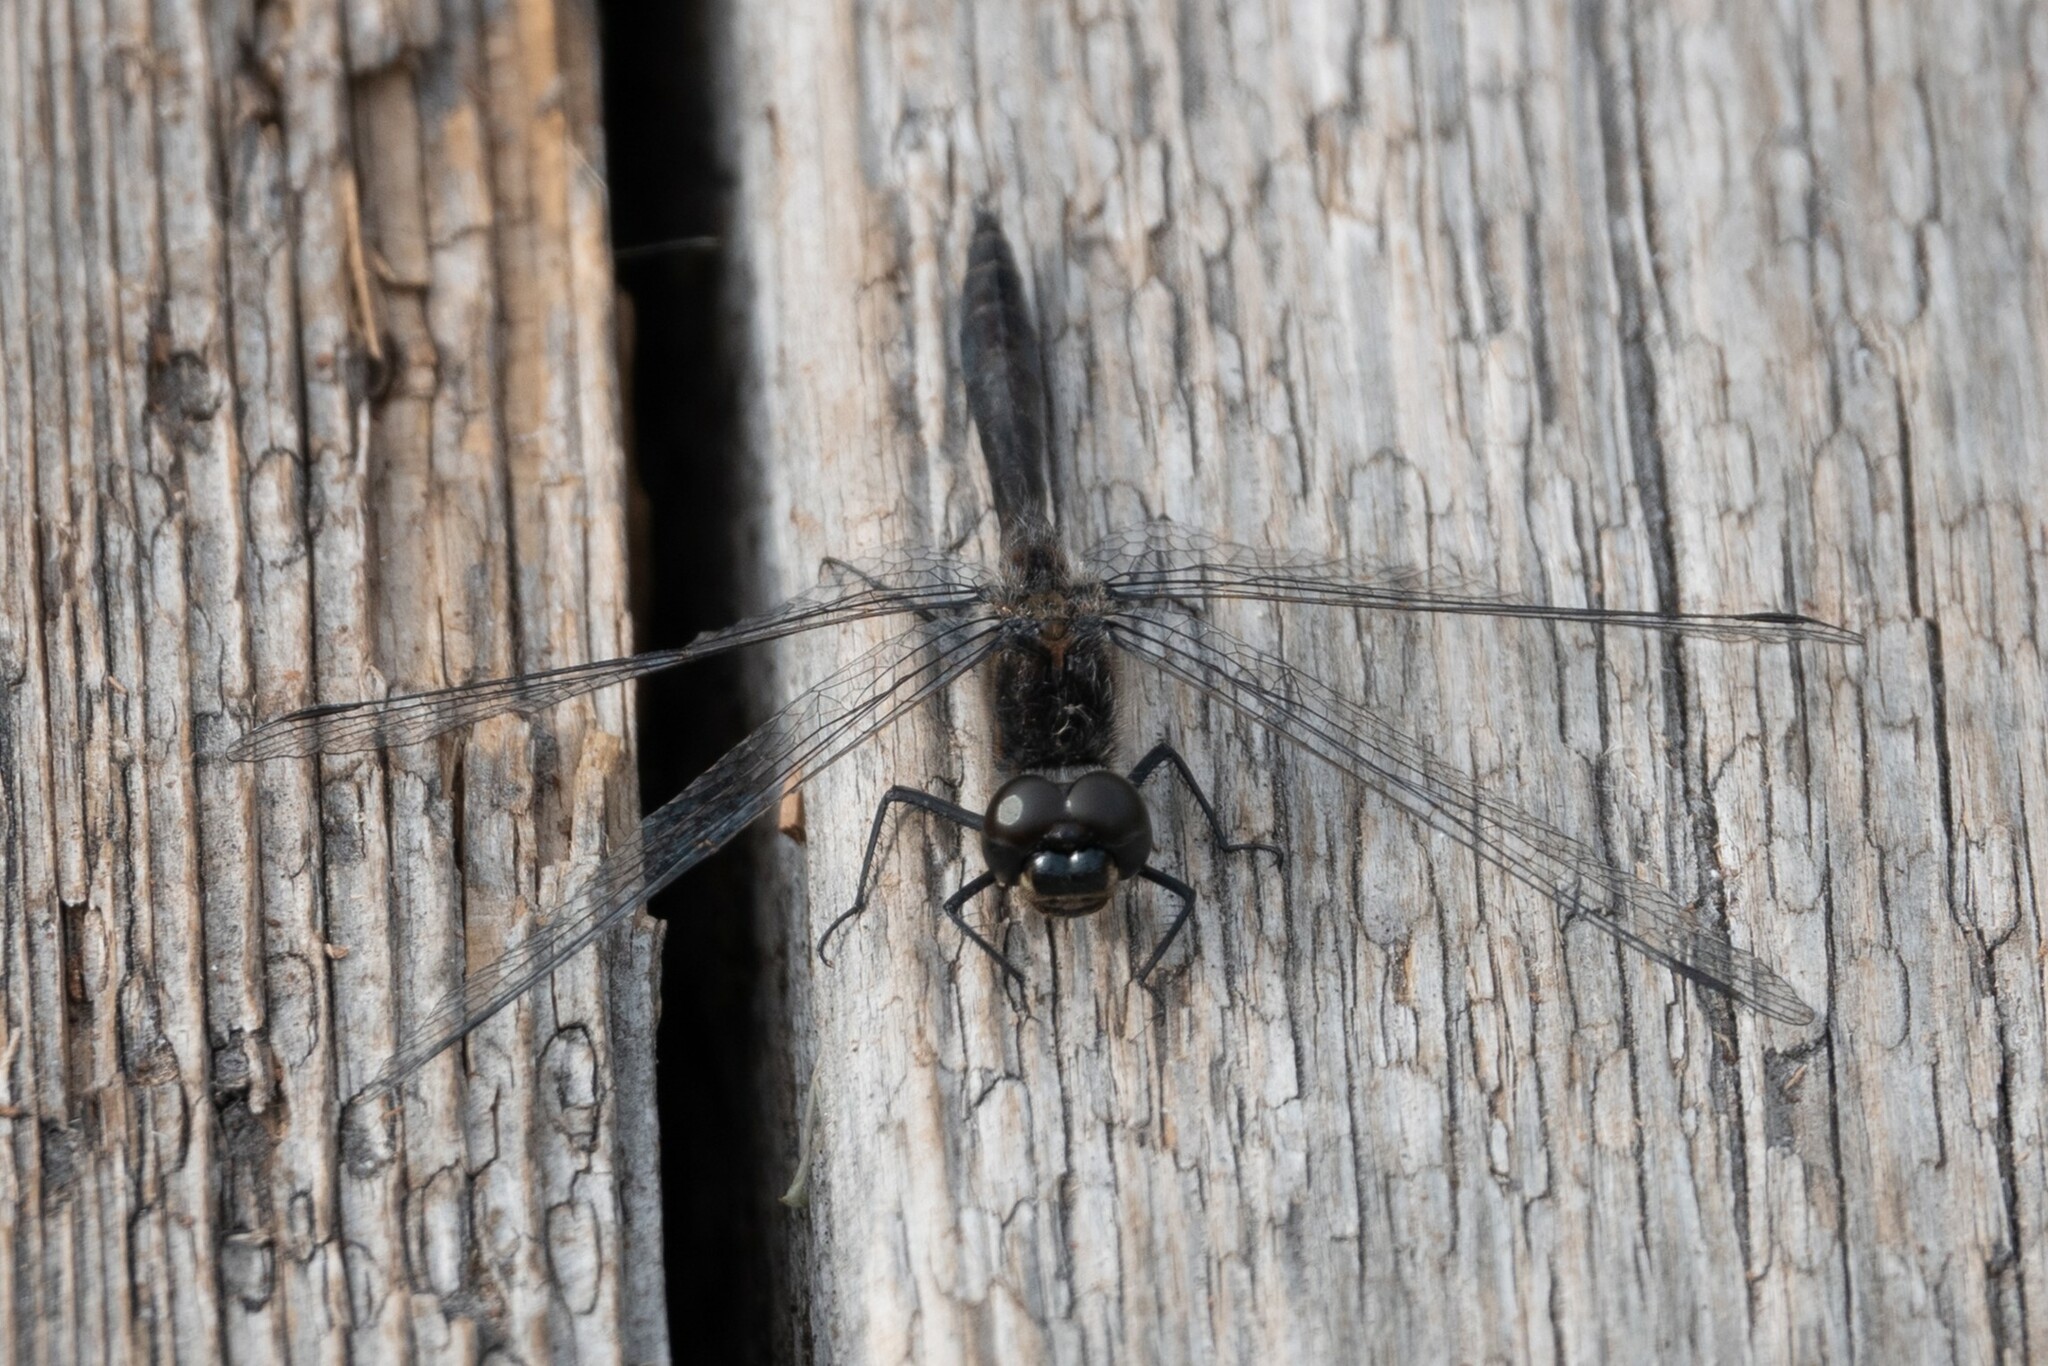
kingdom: Animalia
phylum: Arthropoda
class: Insecta
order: Odonata
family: Libellulidae
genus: Sympetrum
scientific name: Sympetrum danae
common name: Black darter
